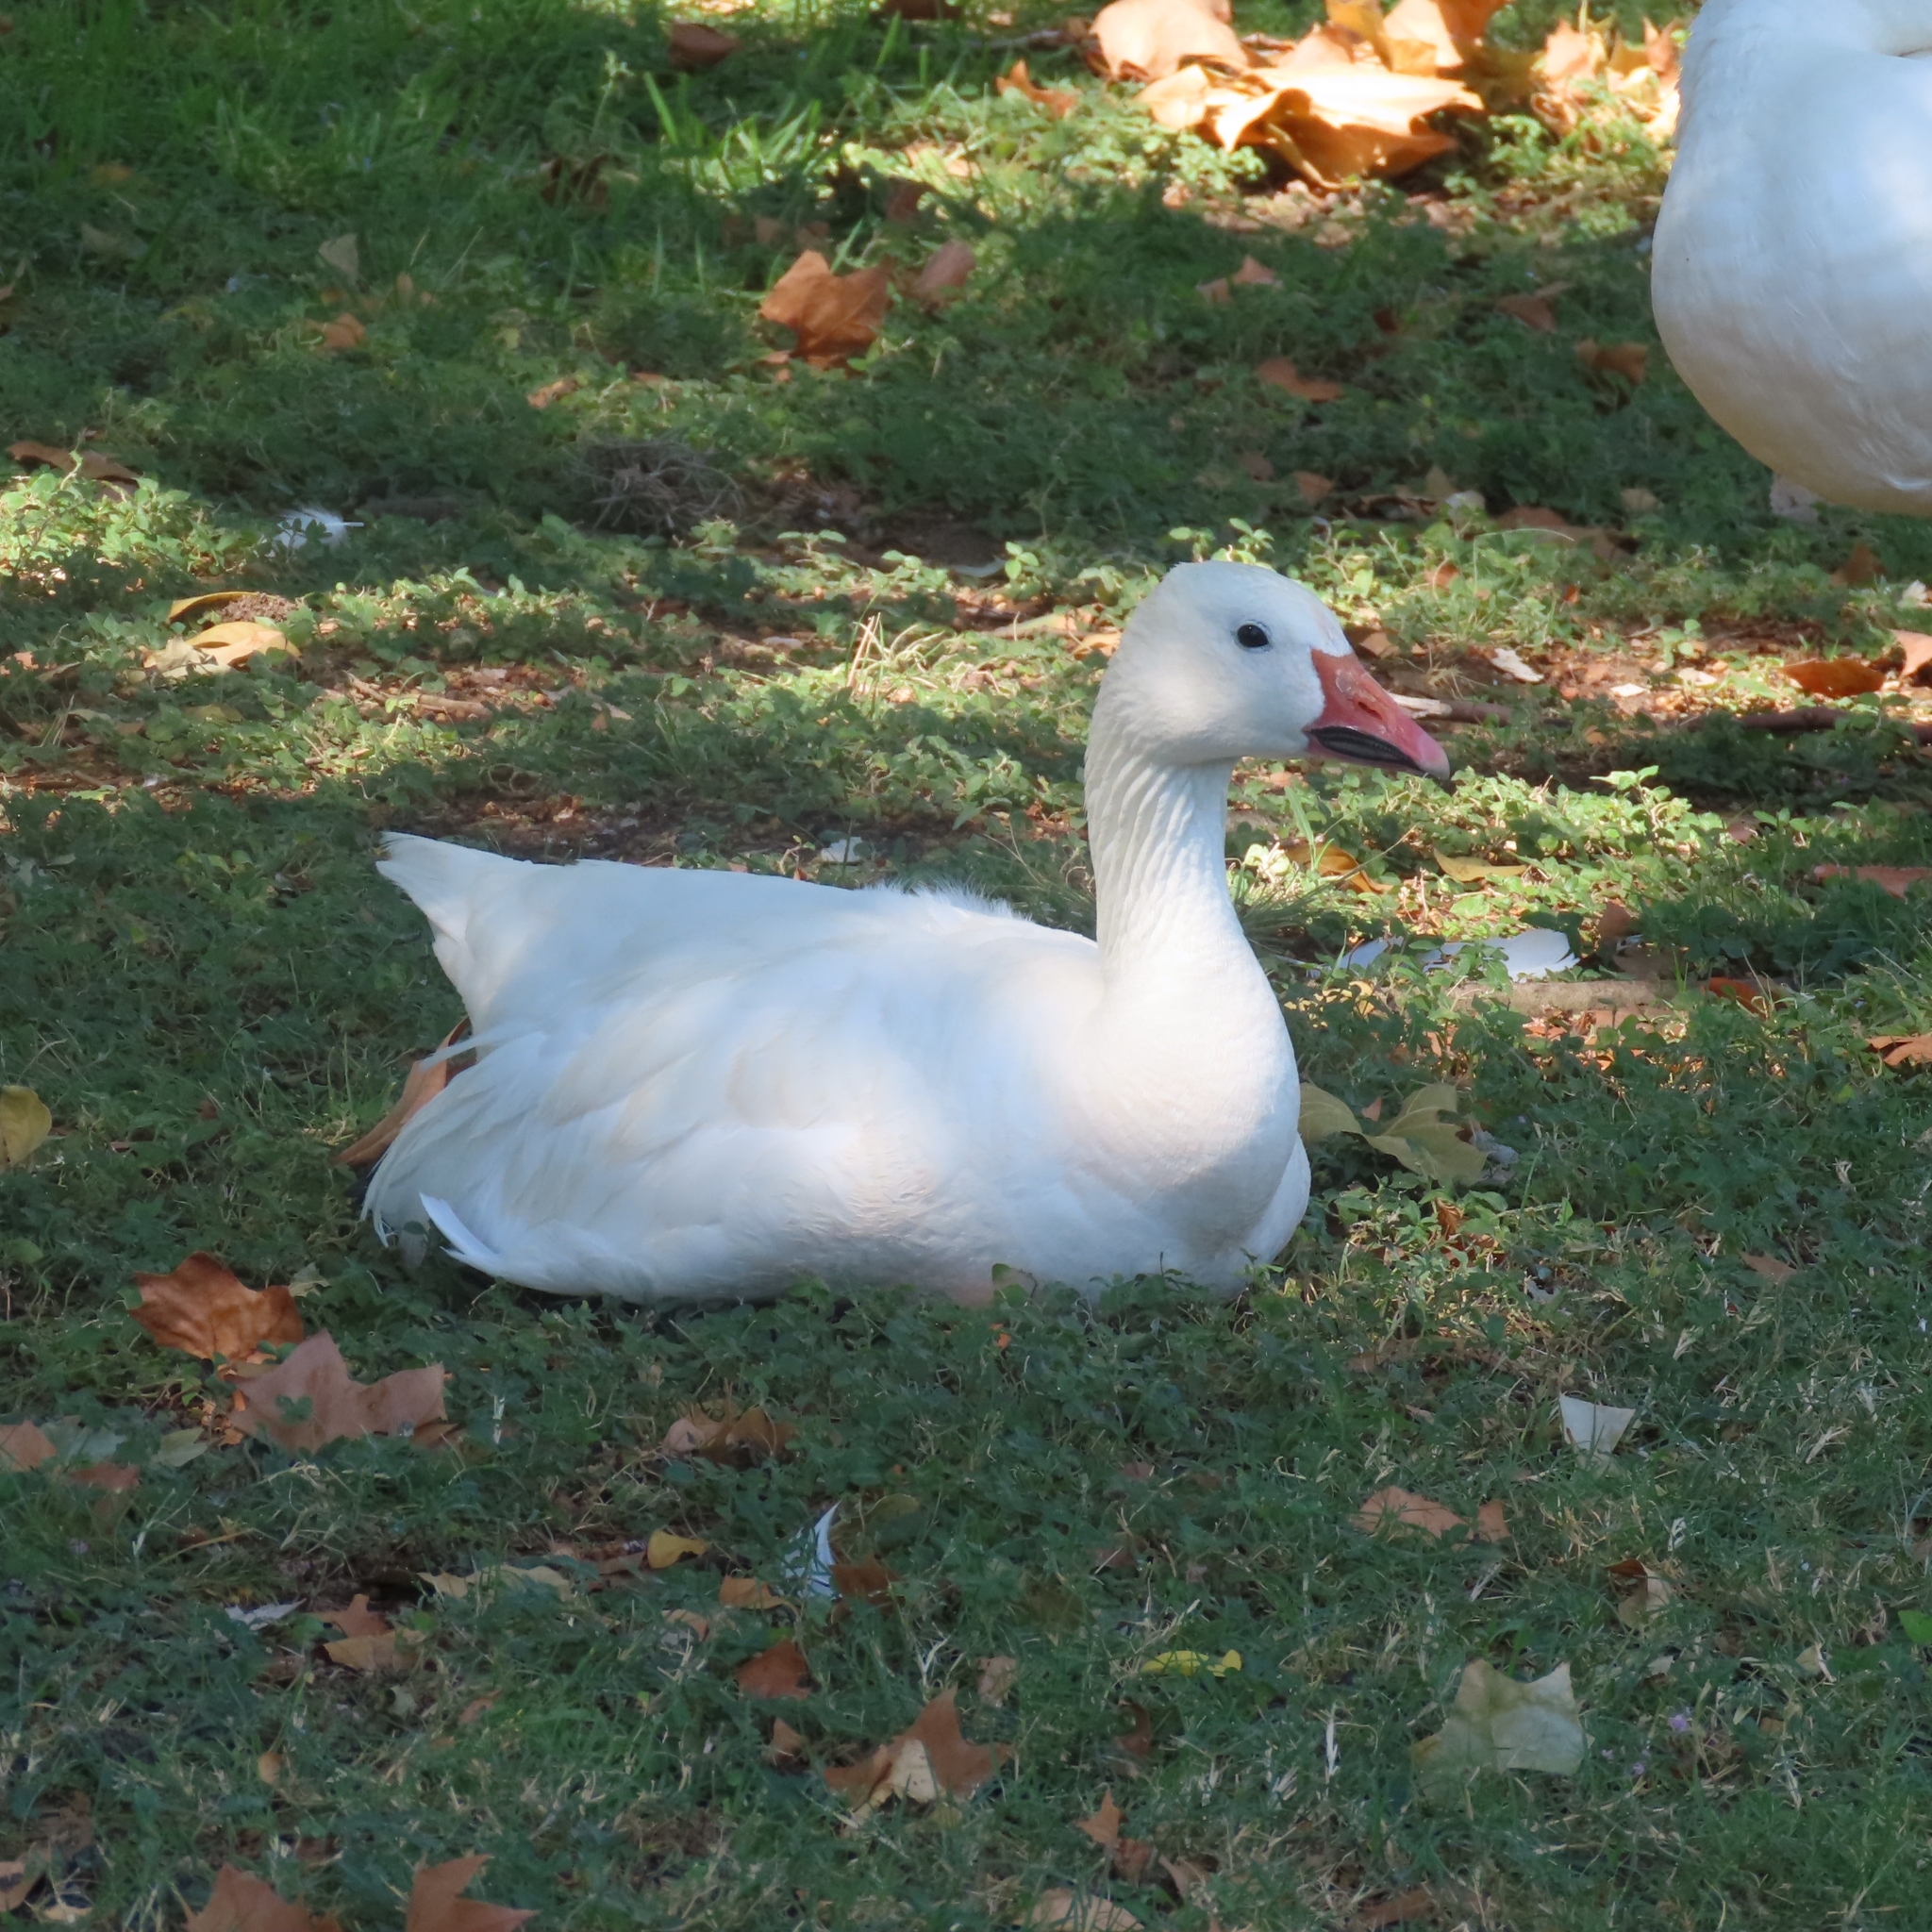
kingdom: Animalia
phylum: Chordata
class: Aves
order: Anseriformes
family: Anatidae
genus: Anser
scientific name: Anser caerulescens
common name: Snow goose
